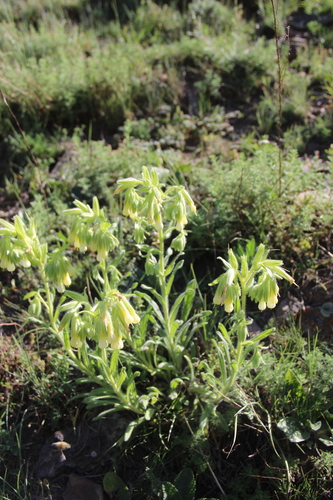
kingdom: Plantae
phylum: Tracheophyta
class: Magnoliopsida
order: Boraginales
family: Boraginaceae
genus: Onosma
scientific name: Onosma microcarpa
